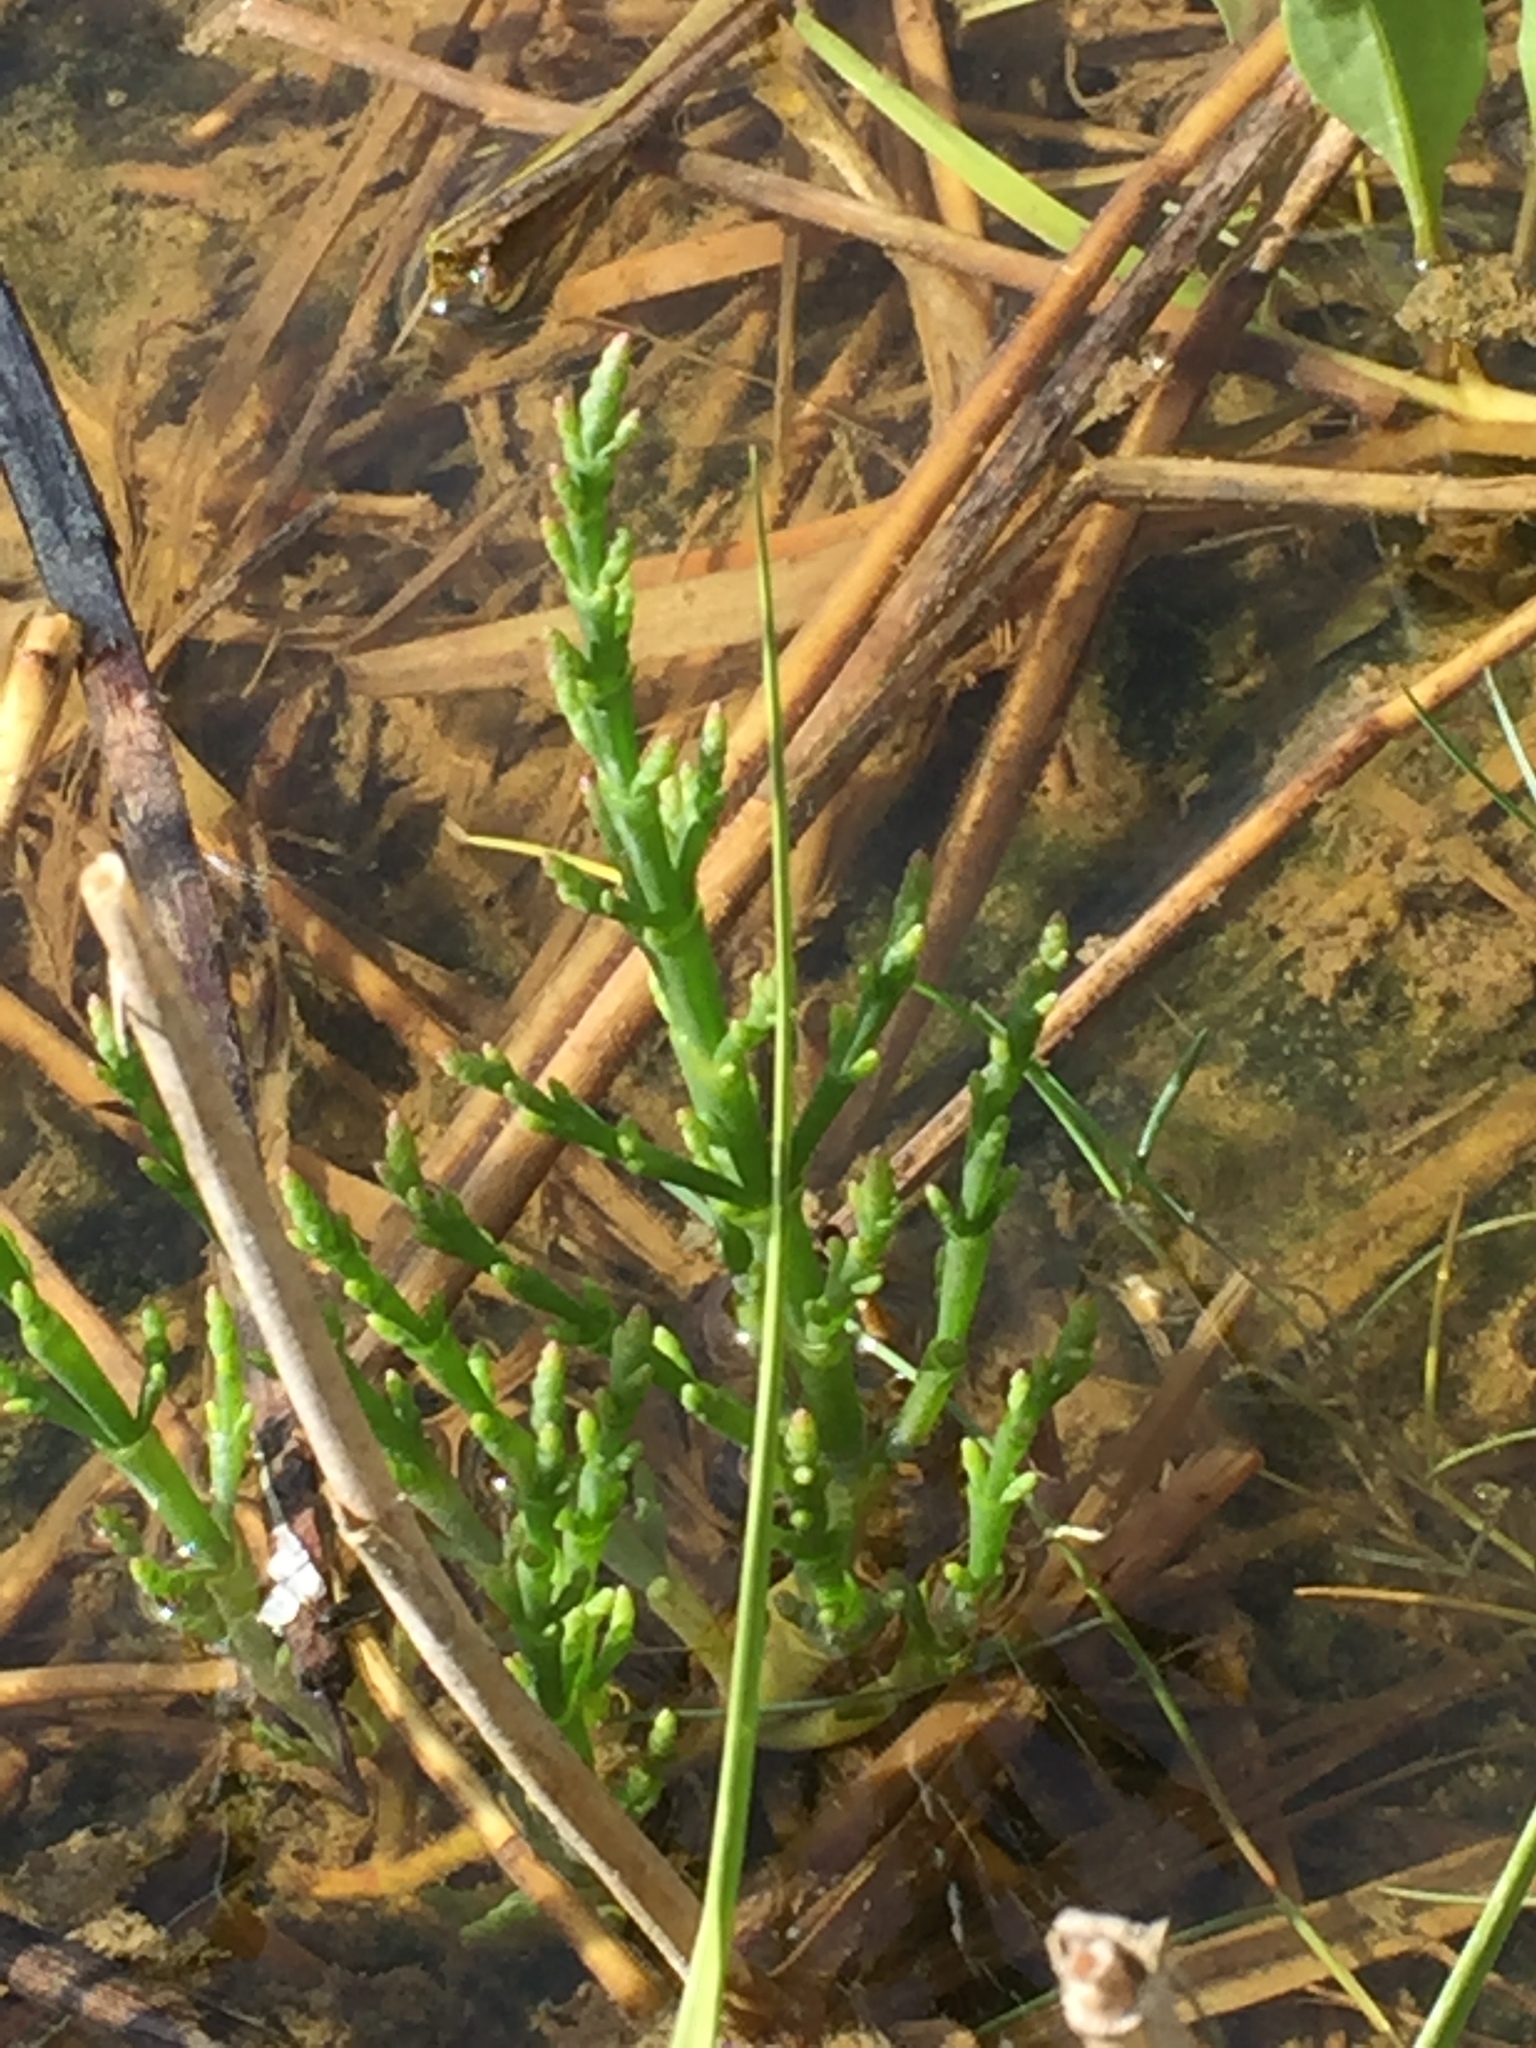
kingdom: Plantae
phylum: Tracheophyta
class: Magnoliopsida
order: Caryophyllales
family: Amaranthaceae
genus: Salicornia
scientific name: Salicornia europaea
